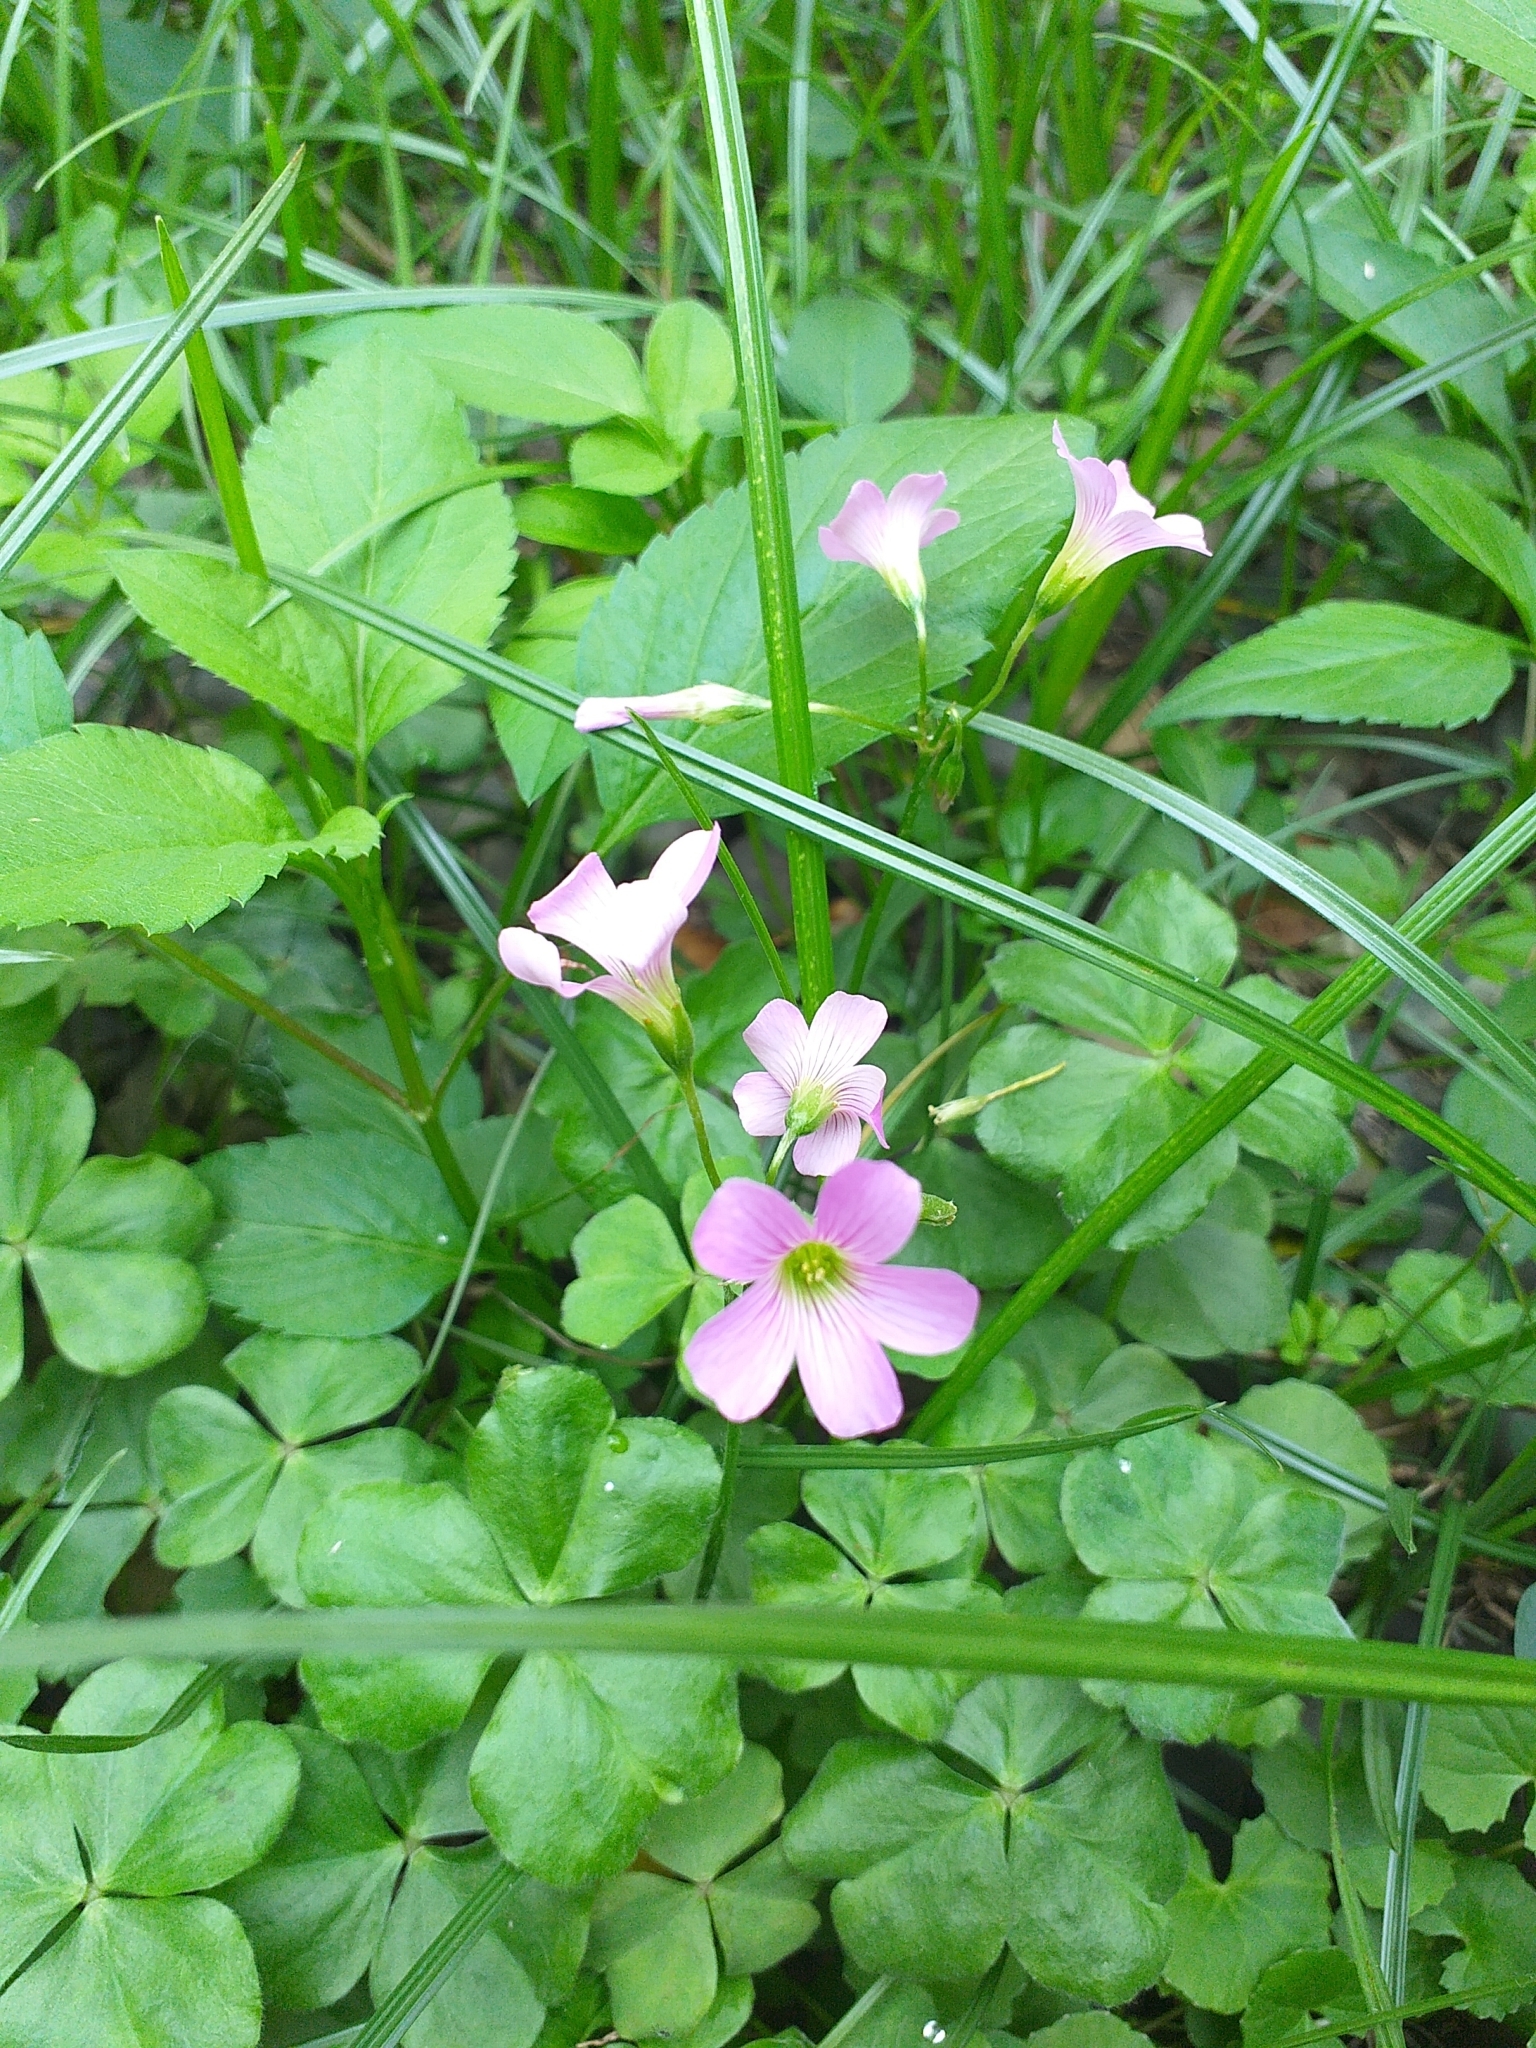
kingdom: Plantae
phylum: Tracheophyta
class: Magnoliopsida
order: Oxalidales
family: Oxalidaceae
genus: Oxalis
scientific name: Oxalis debilis
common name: Large-flowered pink-sorrel
